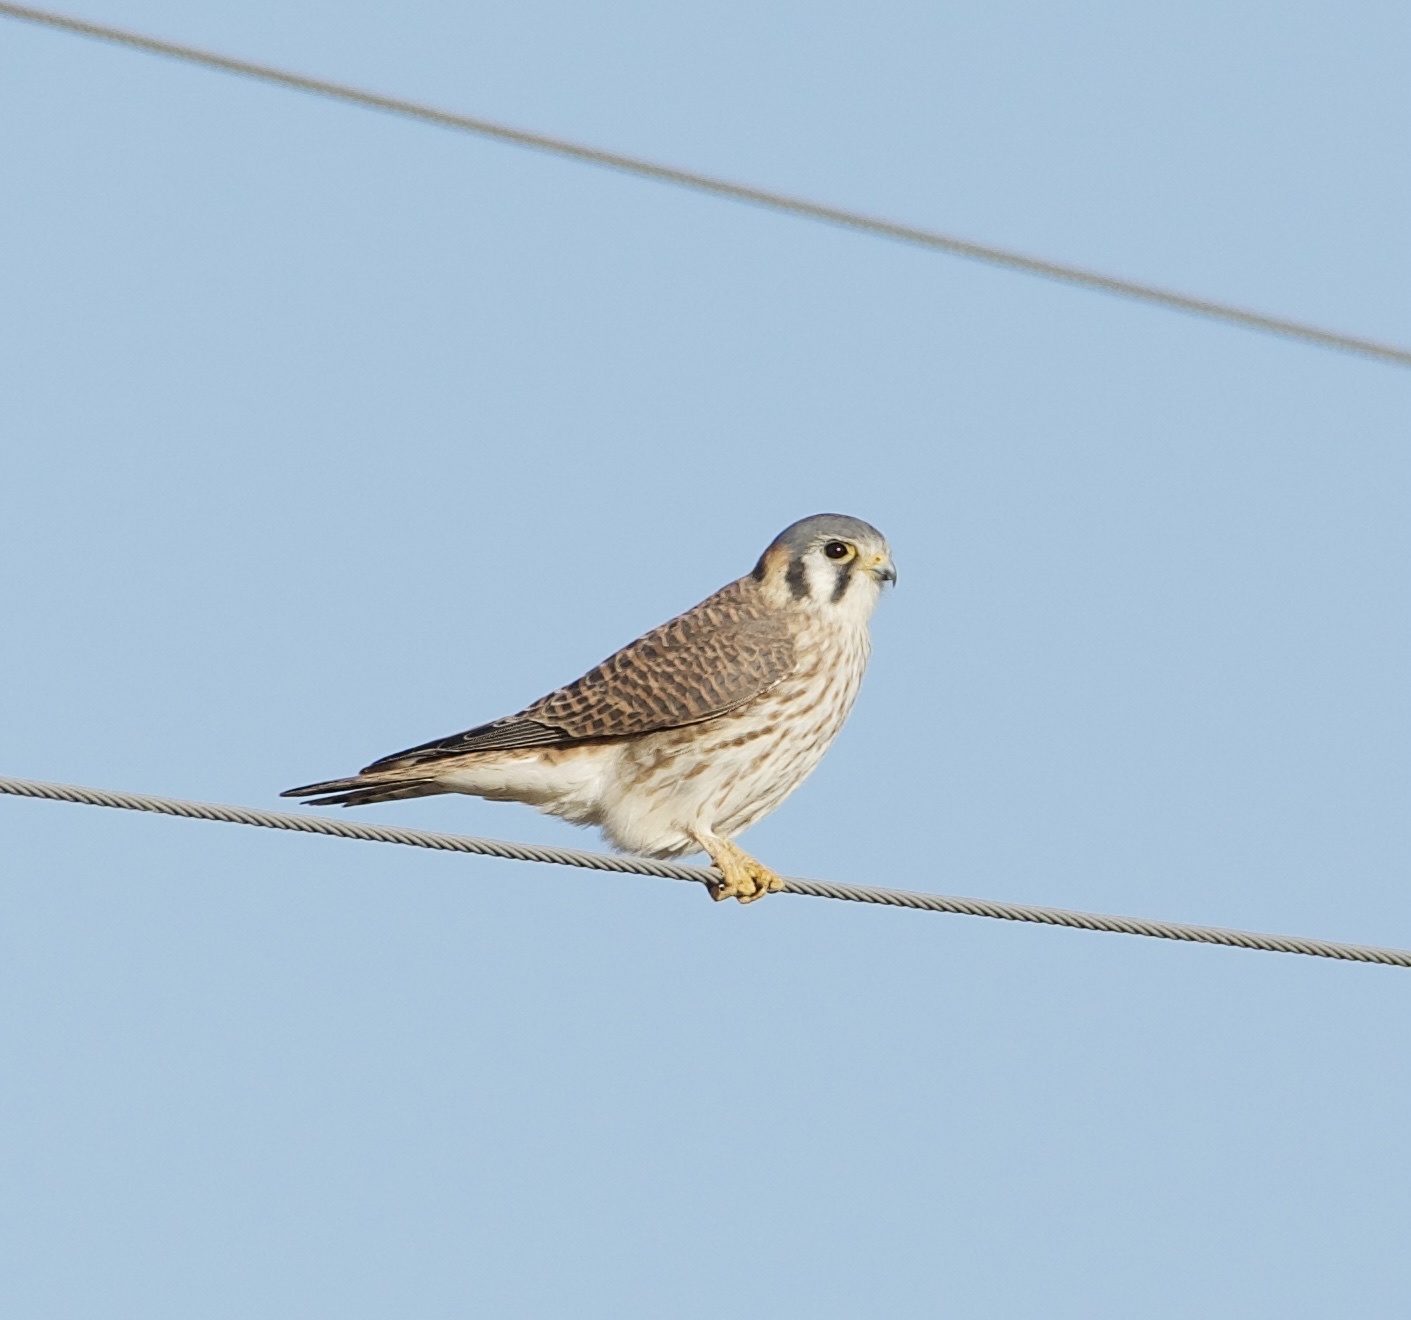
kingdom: Animalia
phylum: Chordata
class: Aves
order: Falconiformes
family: Falconidae
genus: Falco
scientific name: Falco sparverius
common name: American kestrel
